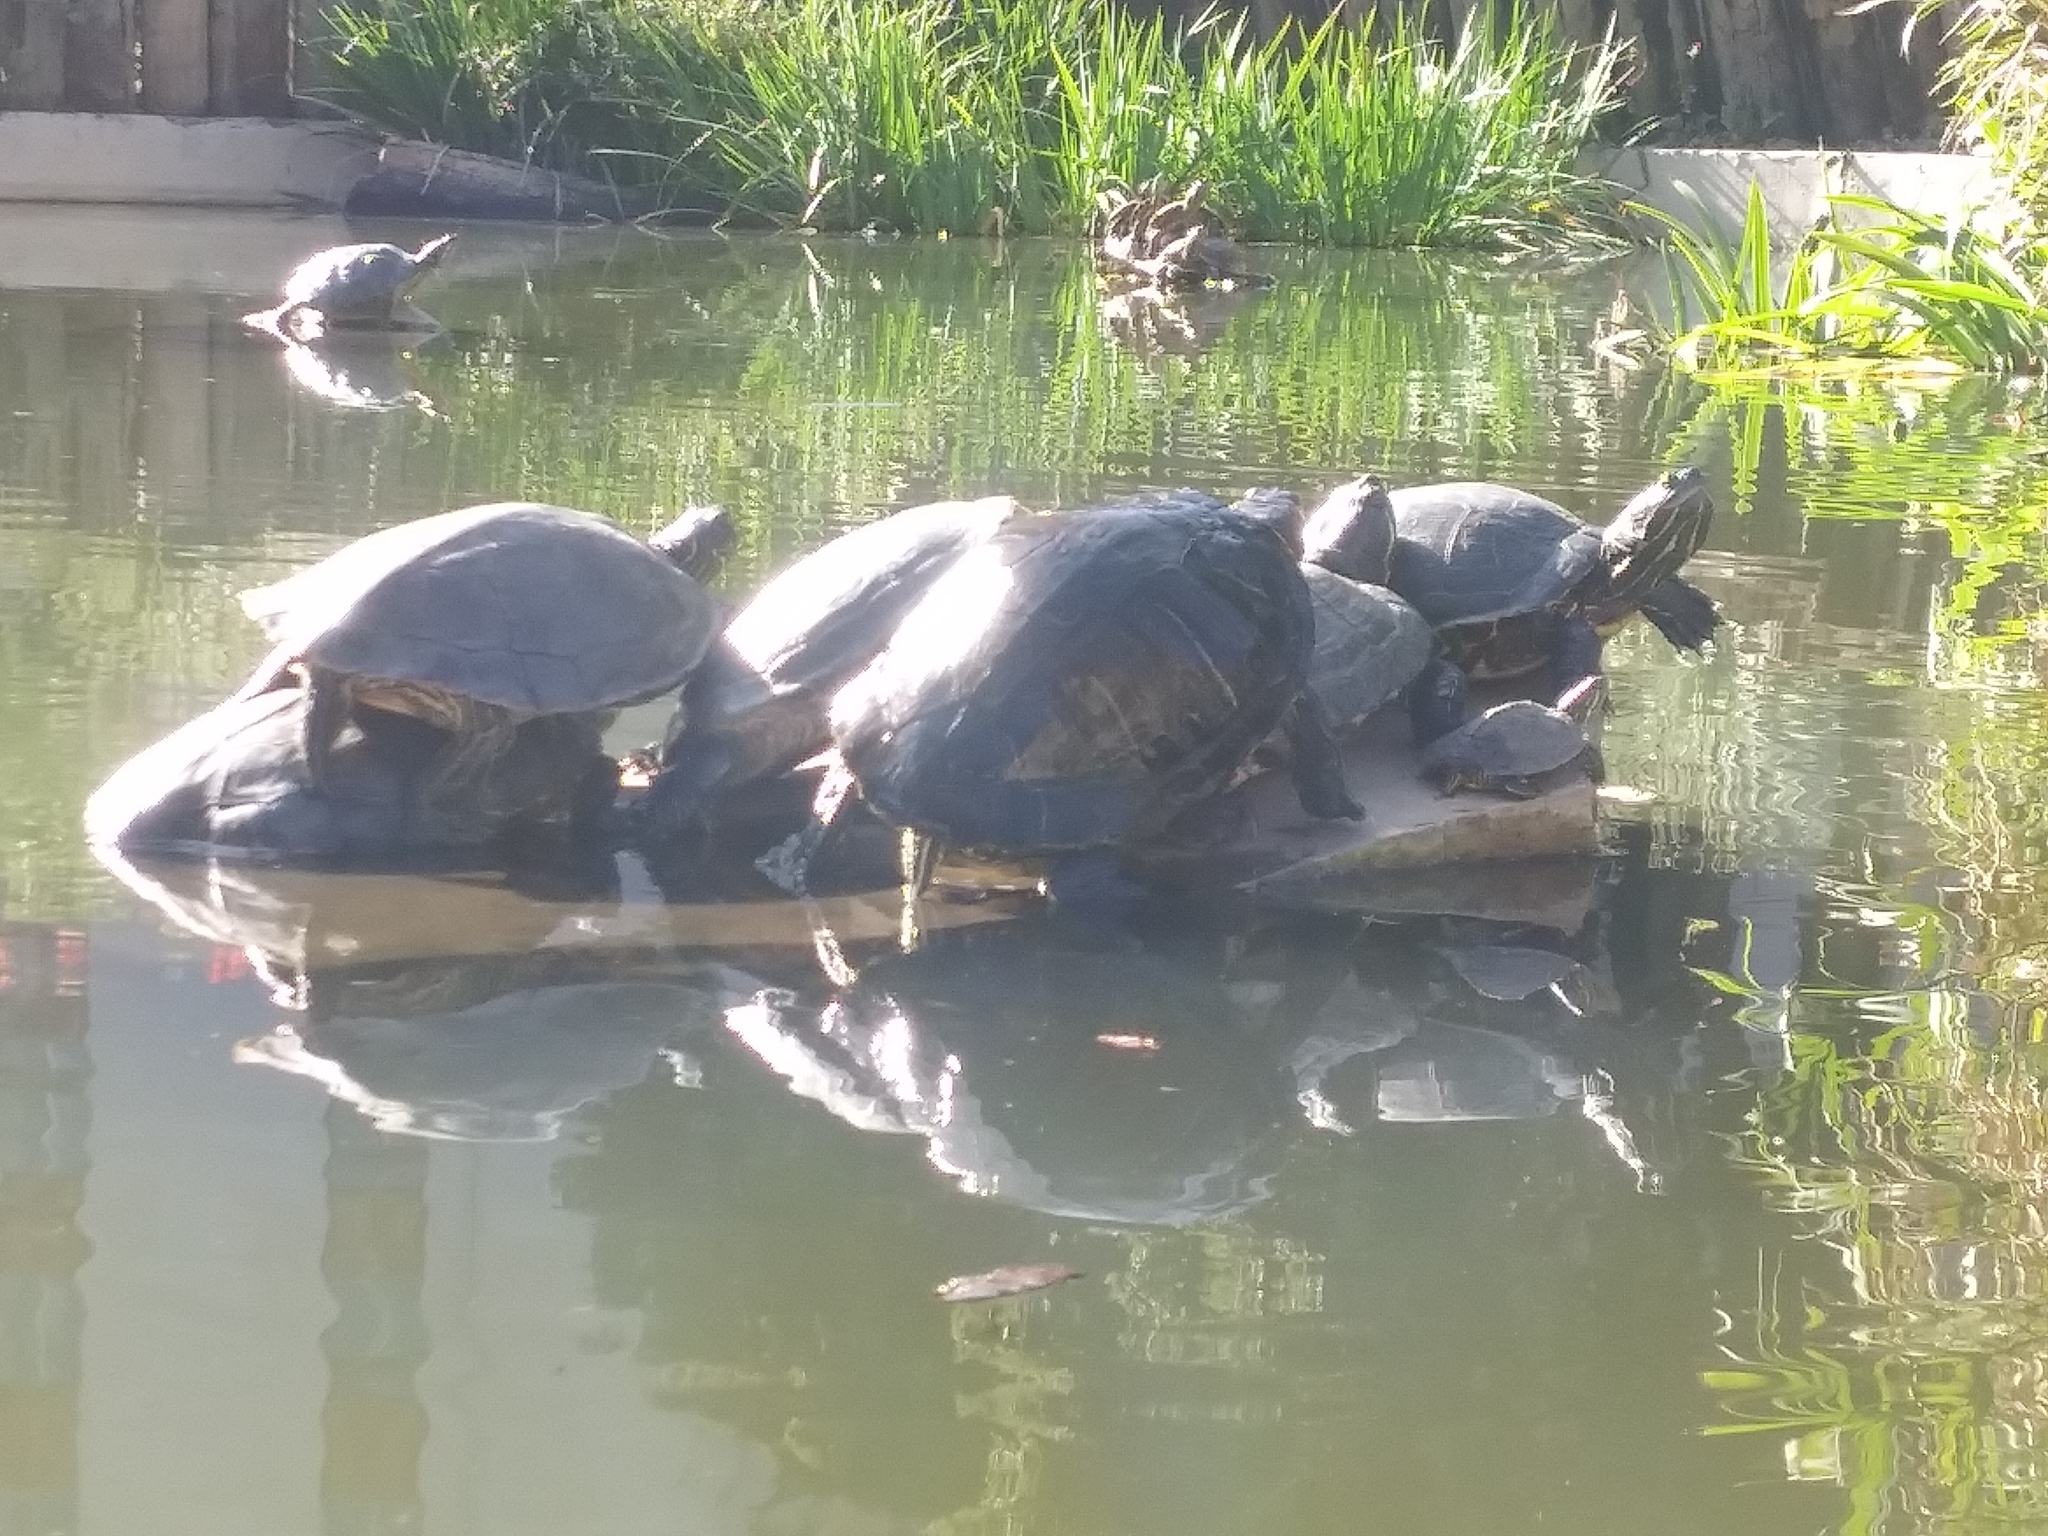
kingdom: Animalia
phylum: Chordata
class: Testudines
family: Emydidae
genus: Trachemys
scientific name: Trachemys scripta
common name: Slider
